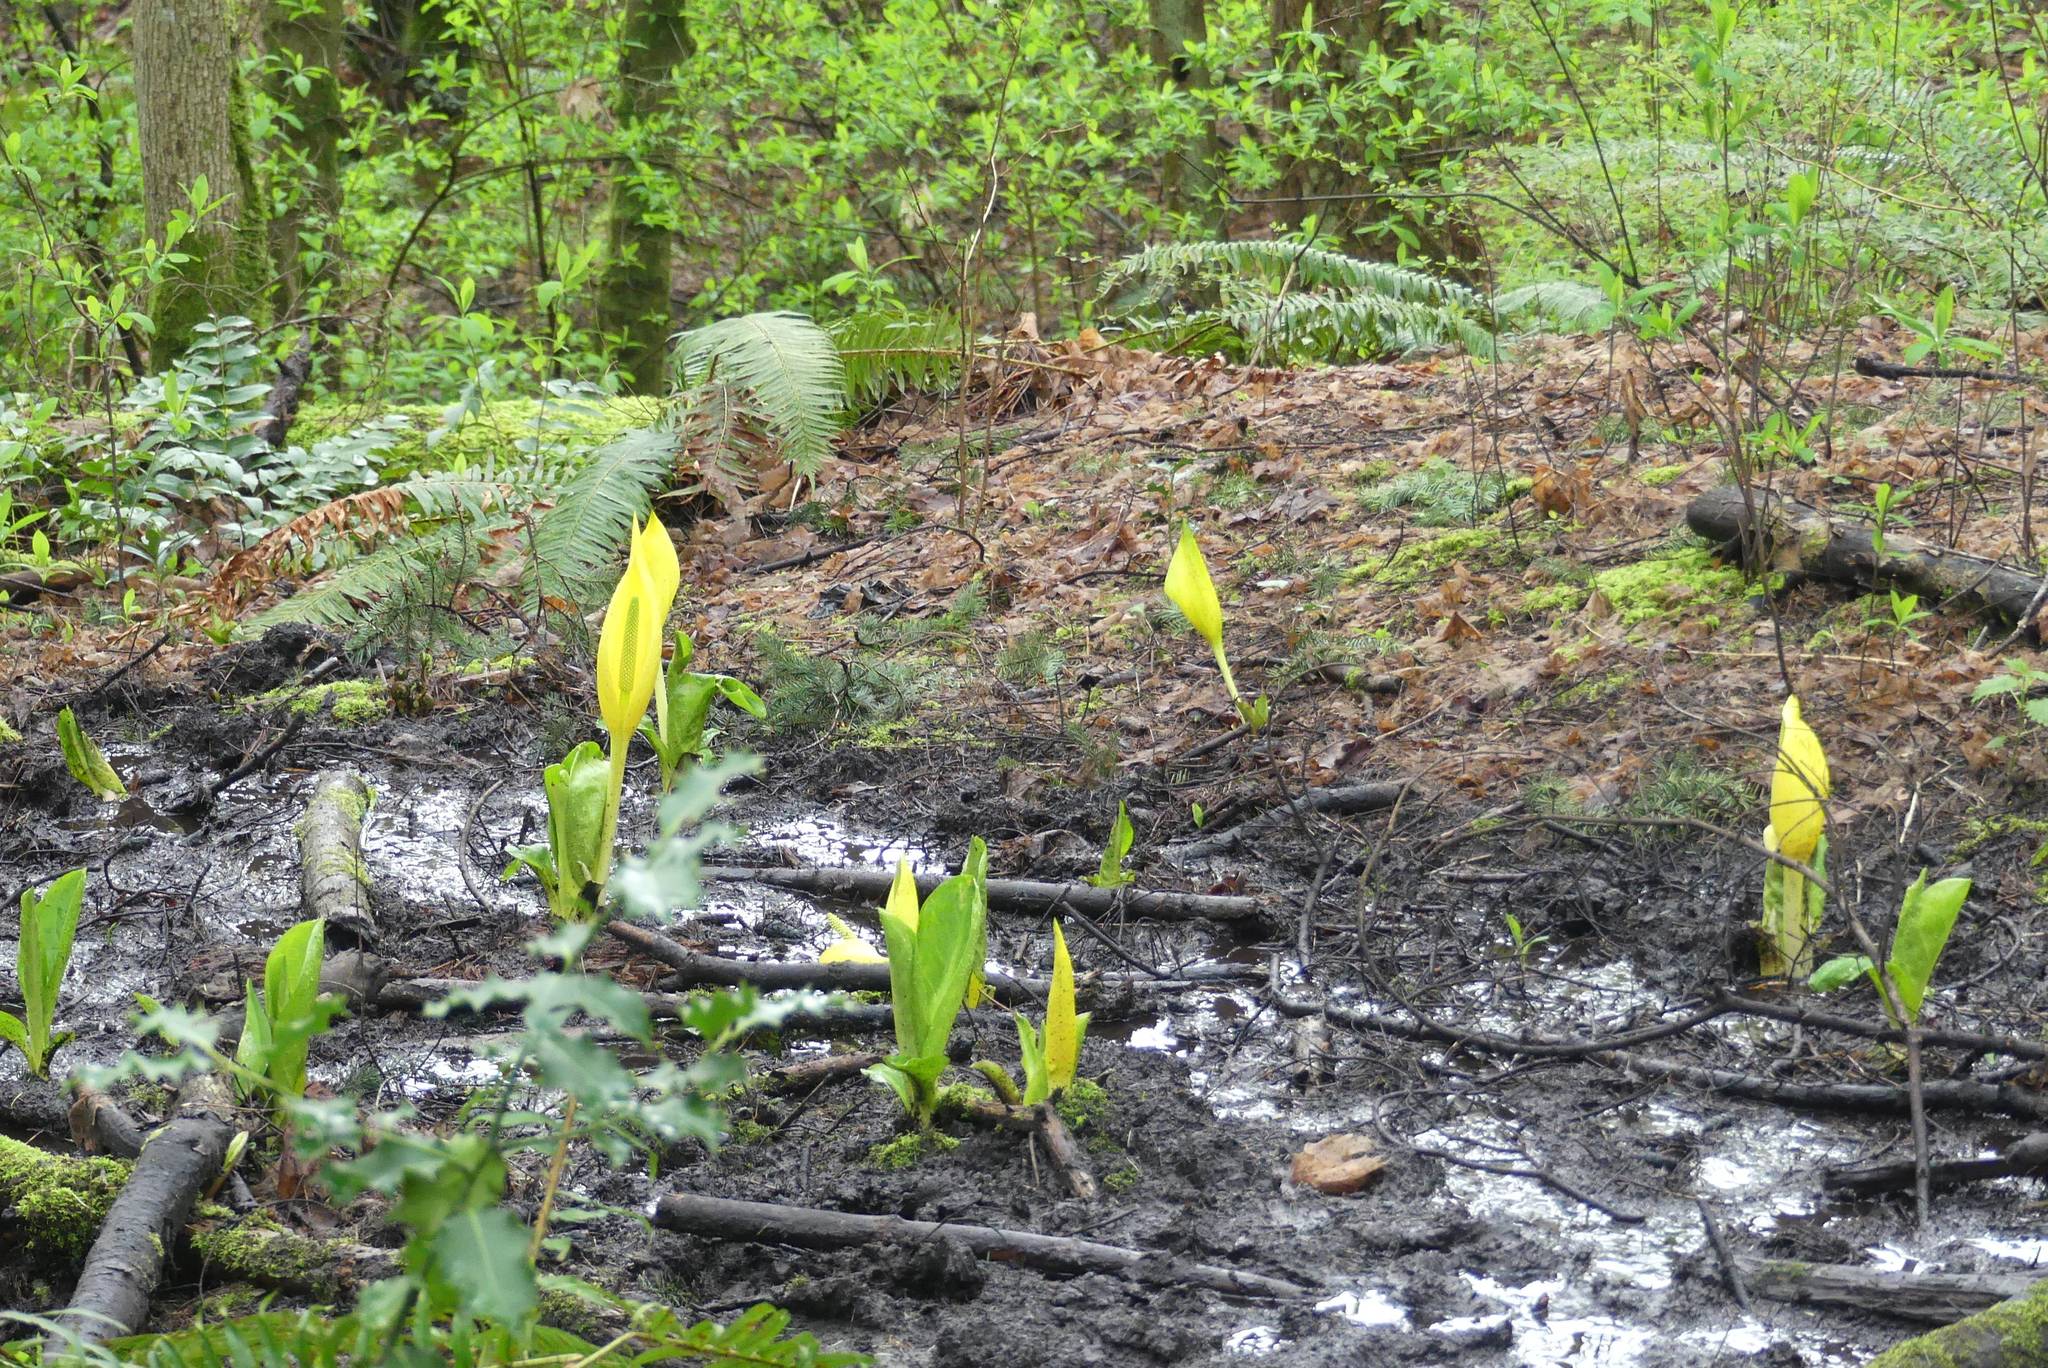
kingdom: Plantae
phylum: Tracheophyta
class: Liliopsida
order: Alismatales
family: Araceae
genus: Lysichiton
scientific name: Lysichiton americanus
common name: American skunk cabbage
